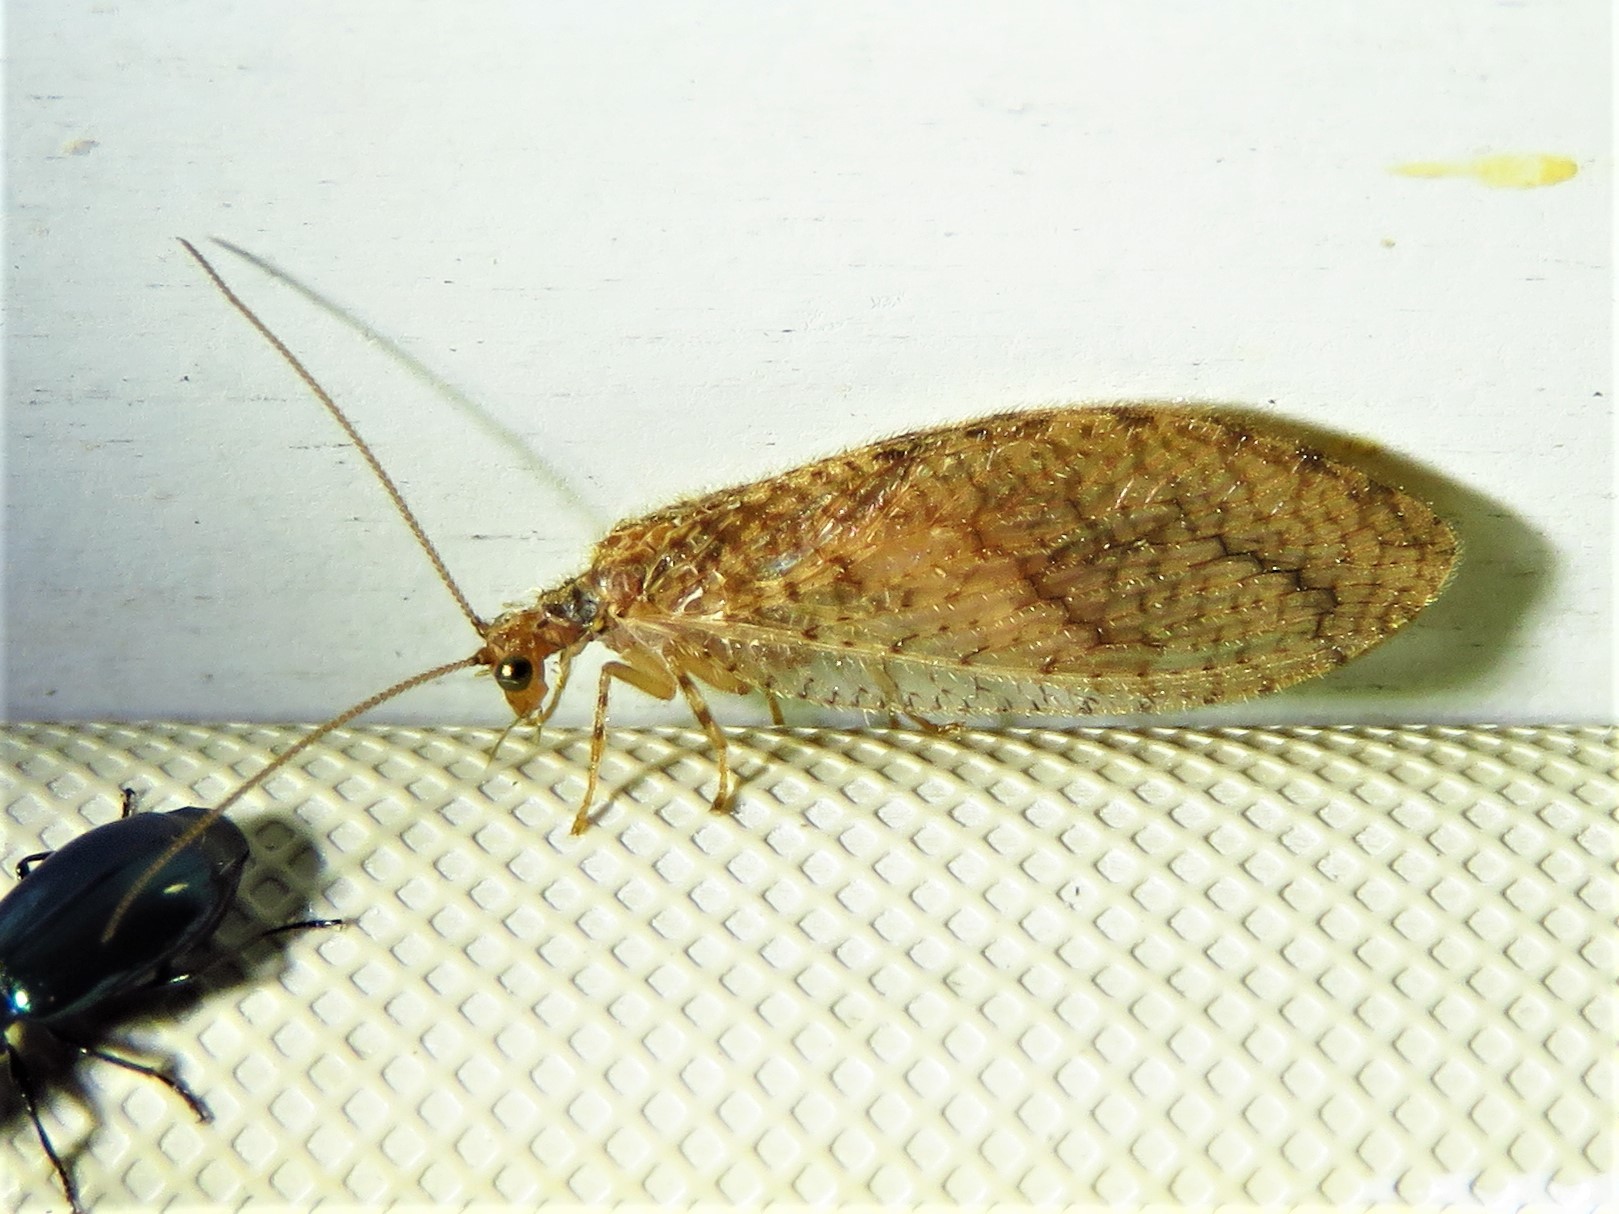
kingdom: Animalia
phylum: Arthropoda
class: Insecta
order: Neuroptera
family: Hemerobiidae
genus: Micromus
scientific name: Micromus posticus
